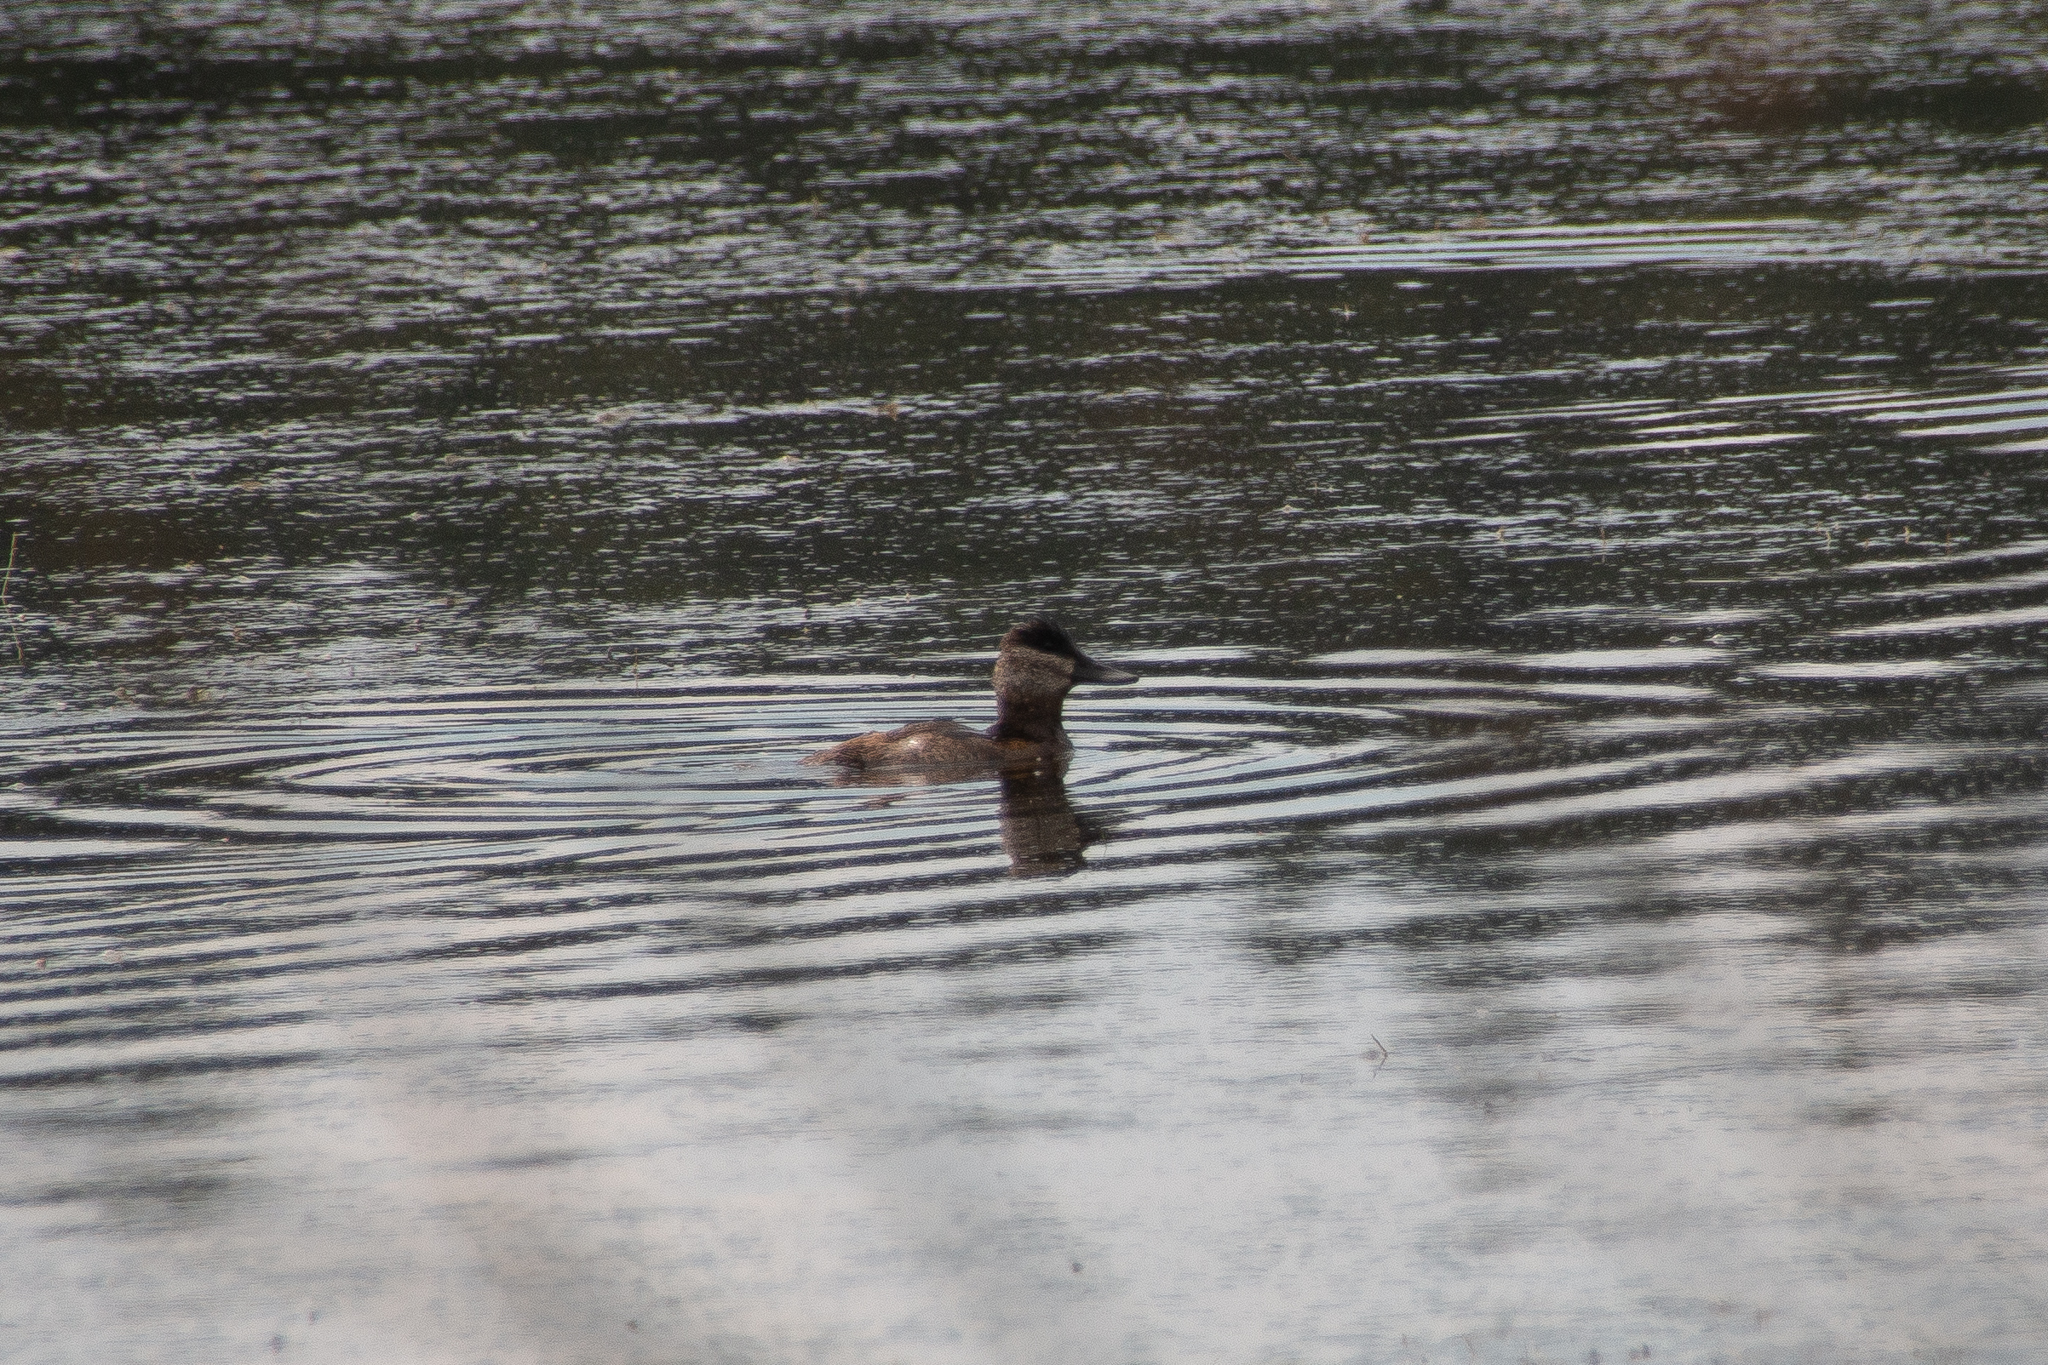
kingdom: Animalia
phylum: Chordata
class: Aves
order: Anseriformes
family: Anatidae
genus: Oxyura
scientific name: Oxyura jamaicensis
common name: Ruddy duck
